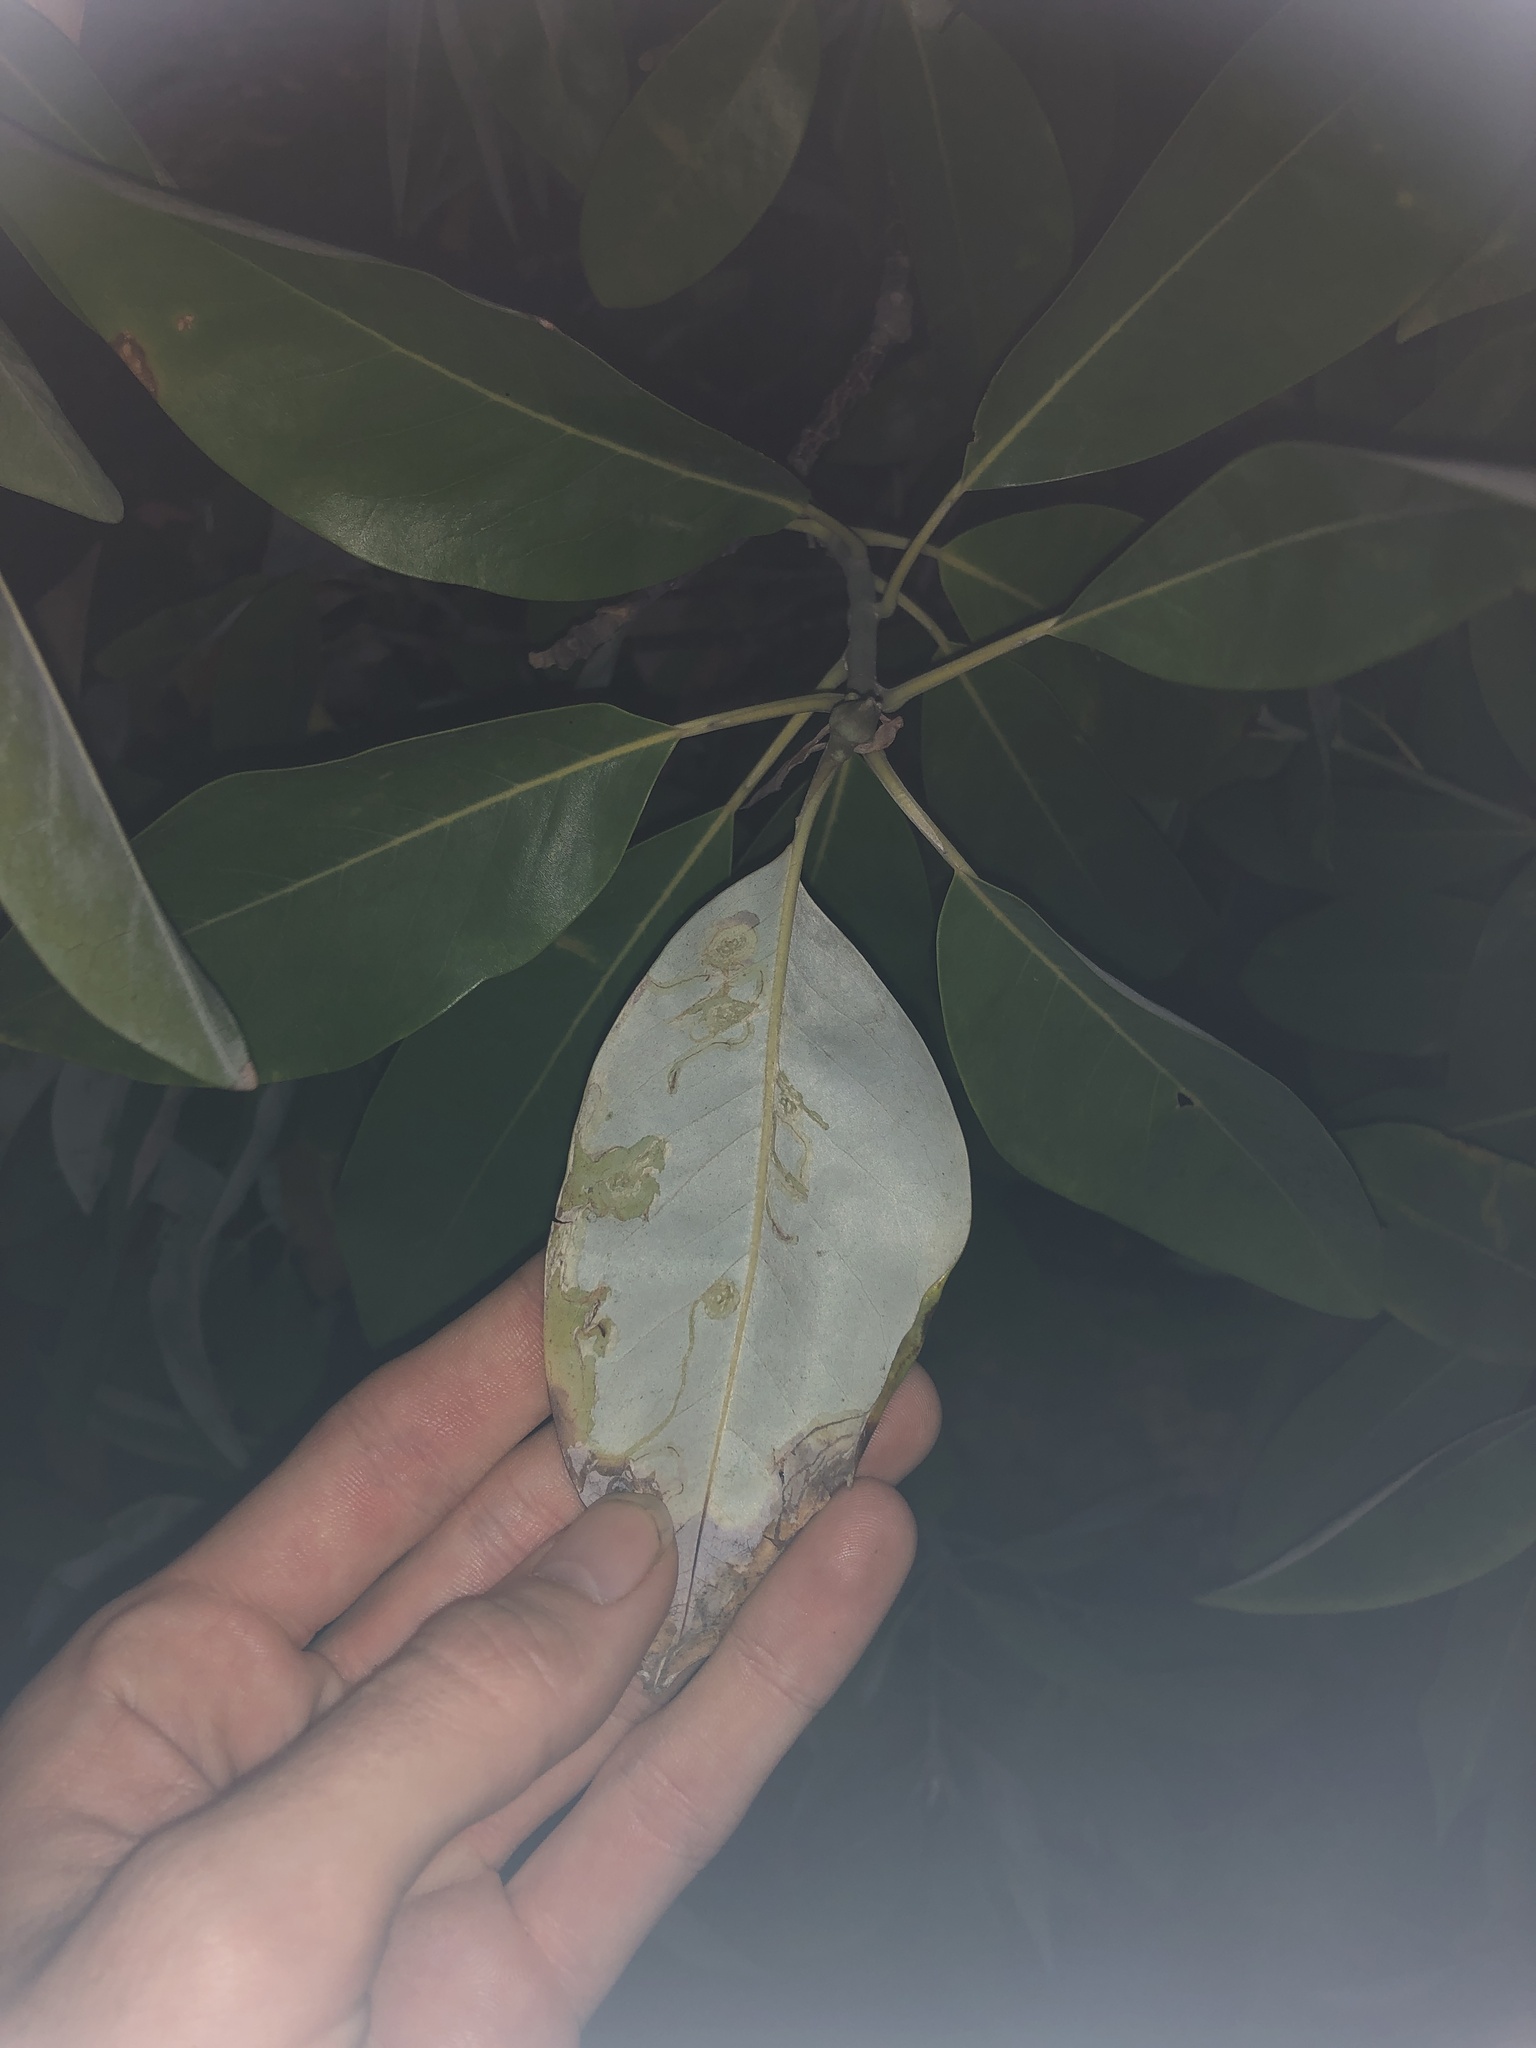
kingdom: Animalia
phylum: Arthropoda
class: Insecta
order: Lepidoptera
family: Gracillariidae
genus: Phyllocnistis
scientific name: Phyllocnistis liriodendronella
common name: Tulip tree leaf miner
